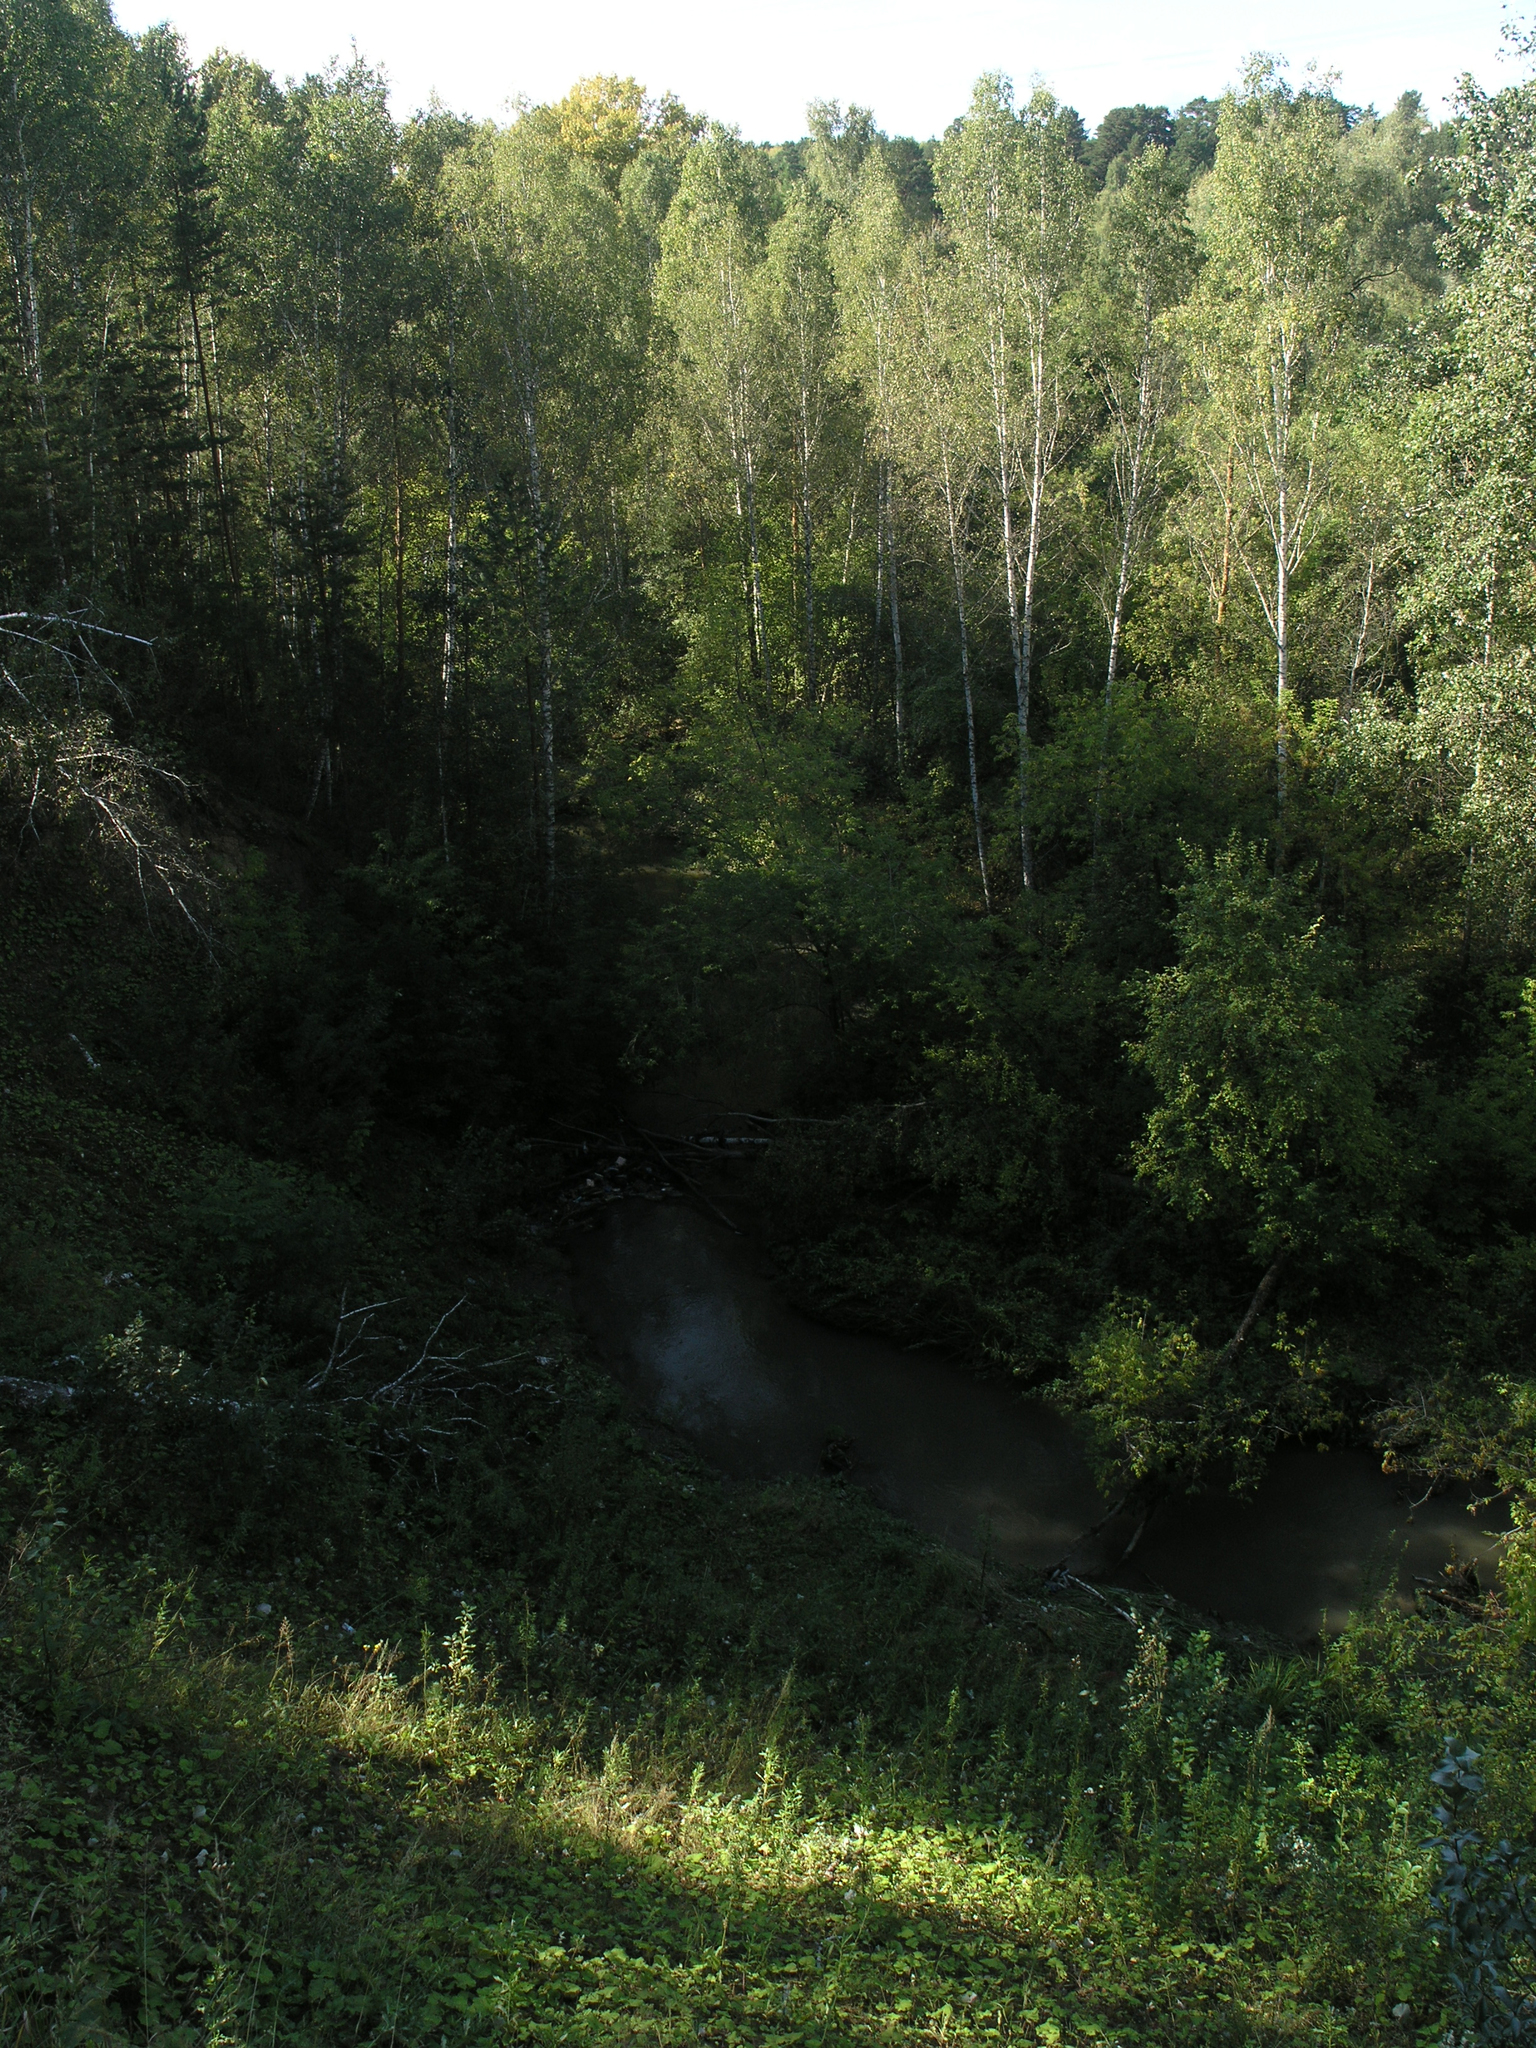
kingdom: Plantae
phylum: Tracheophyta
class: Magnoliopsida
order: Fagales
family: Betulaceae
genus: Betula
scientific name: Betula pendula
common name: Silver birch
